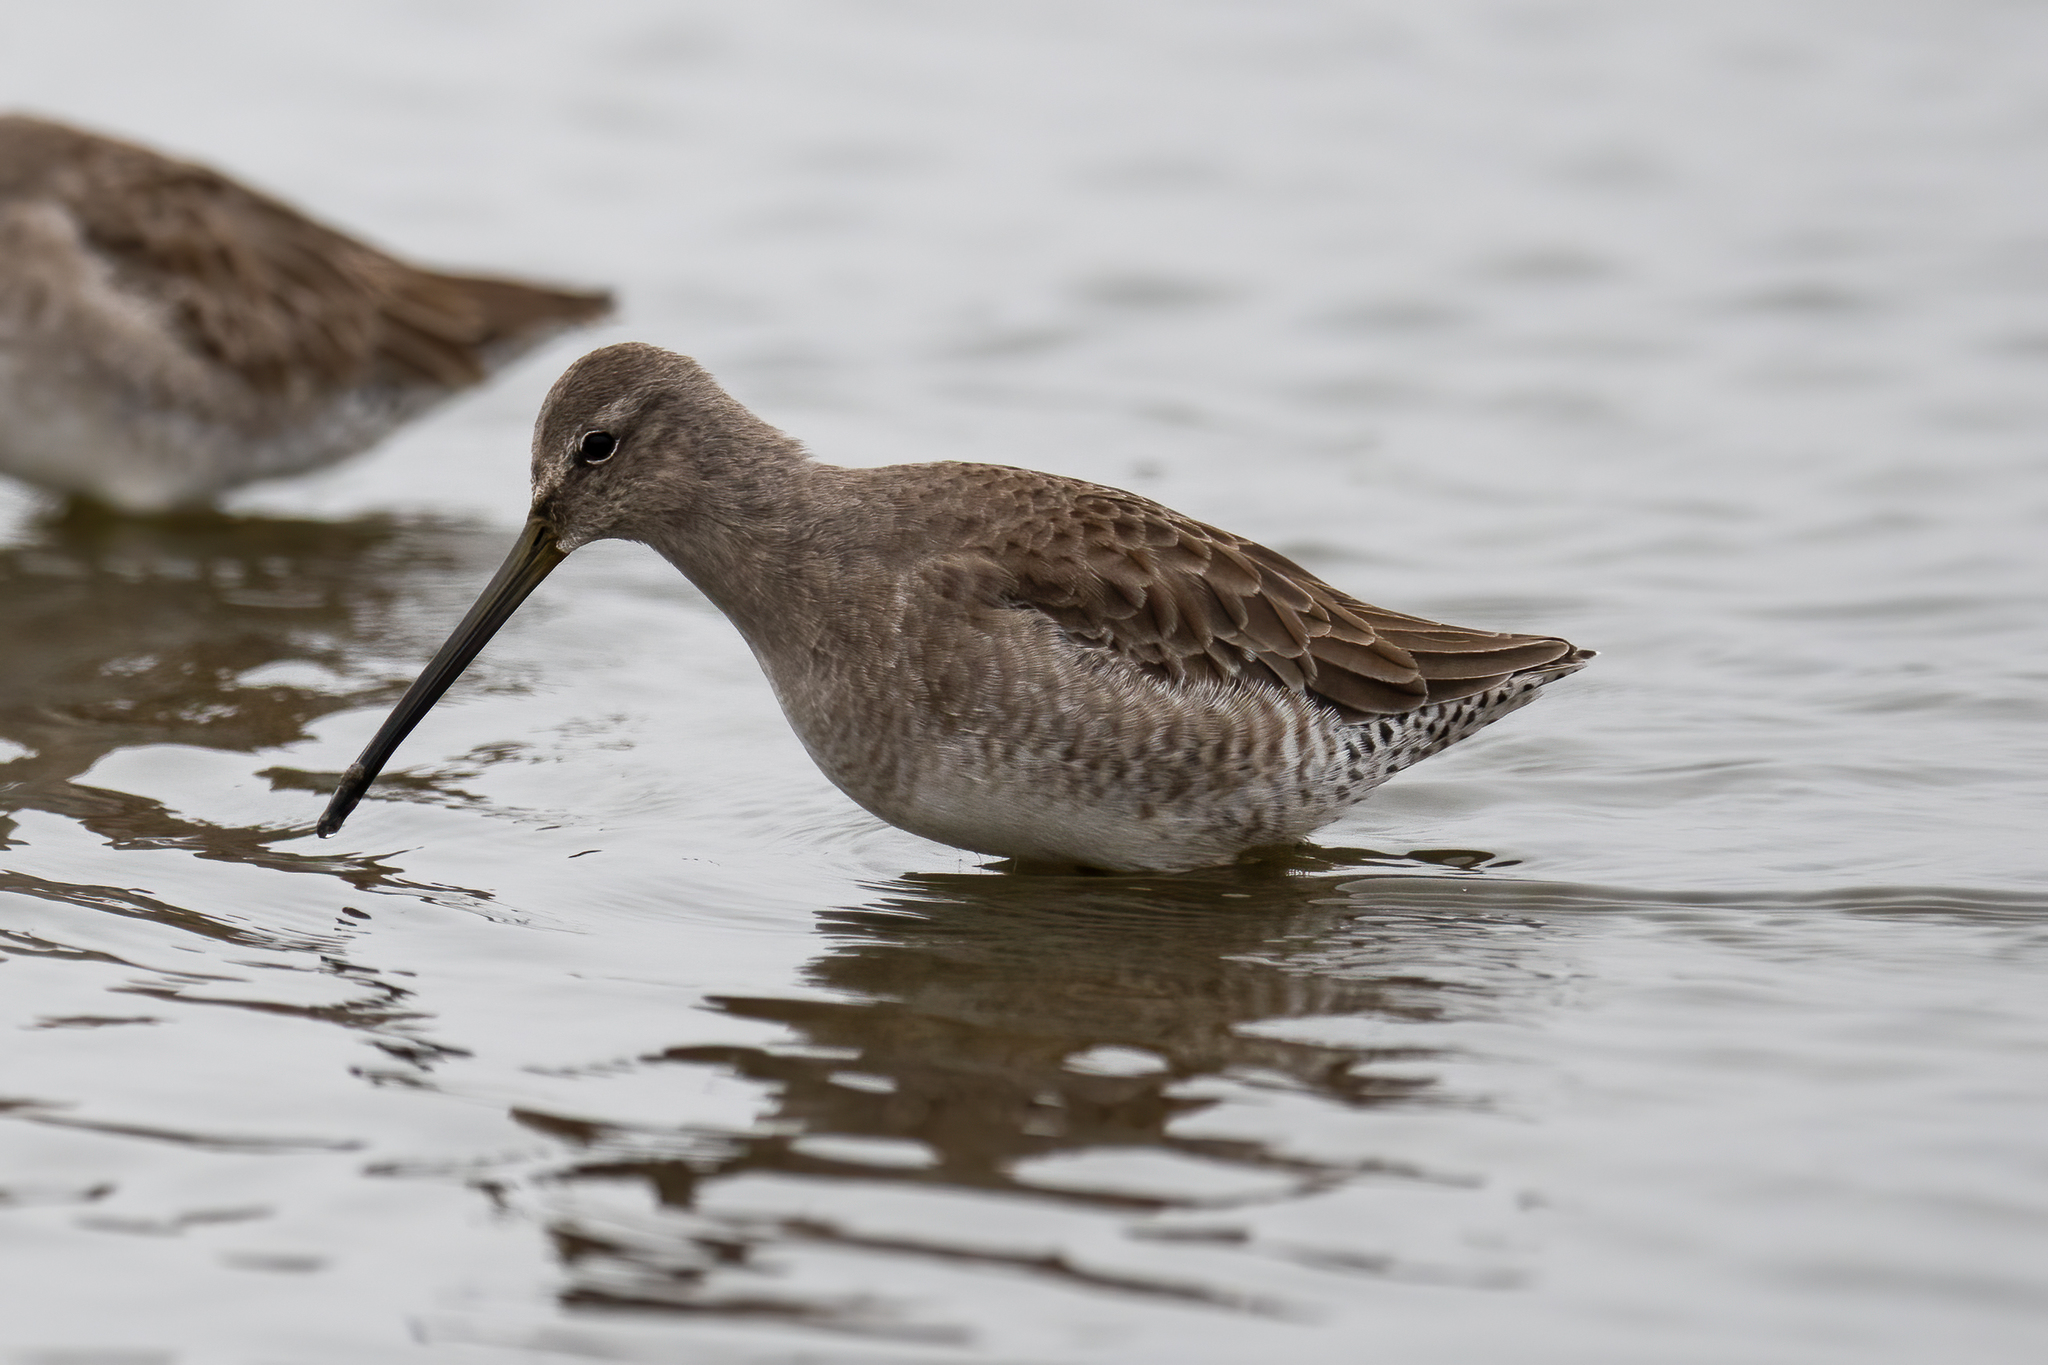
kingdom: Animalia
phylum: Chordata
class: Aves
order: Charadriiformes
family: Scolopacidae
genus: Limnodromus
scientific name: Limnodromus scolopaceus
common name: Long-billed dowitcher
